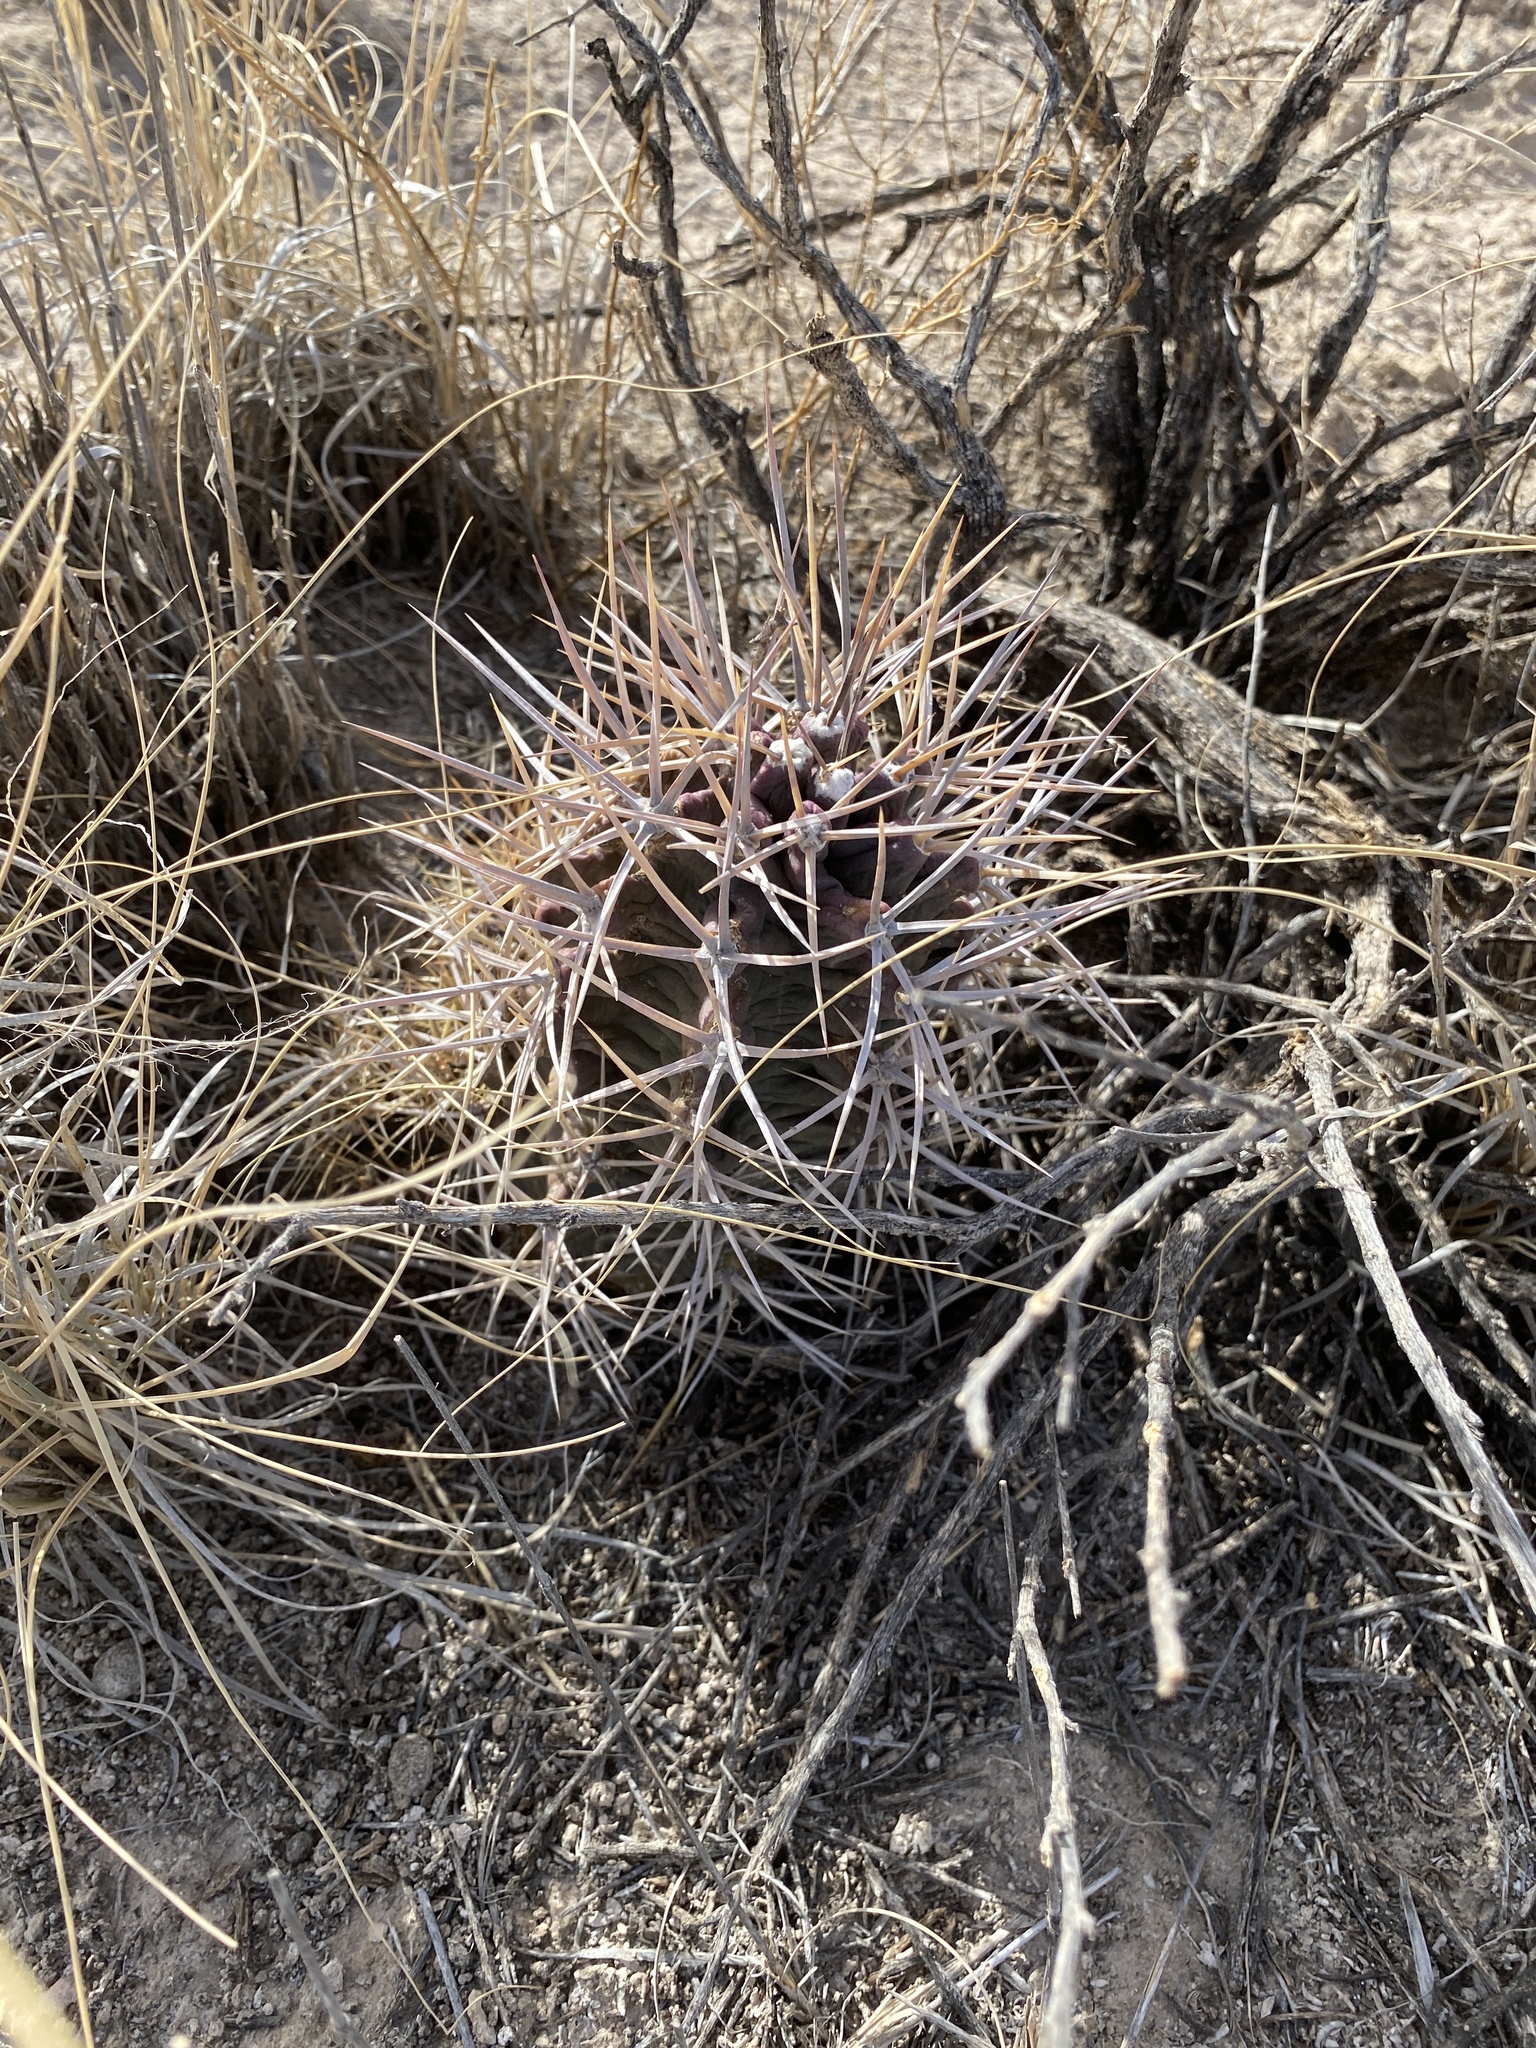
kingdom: Plantae
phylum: Tracheophyta
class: Magnoliopsida
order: Caryophyllales
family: Cactaceae
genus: Echinocereus
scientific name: Echinocereus triglochidiatus
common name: Claretcup hedgehog
